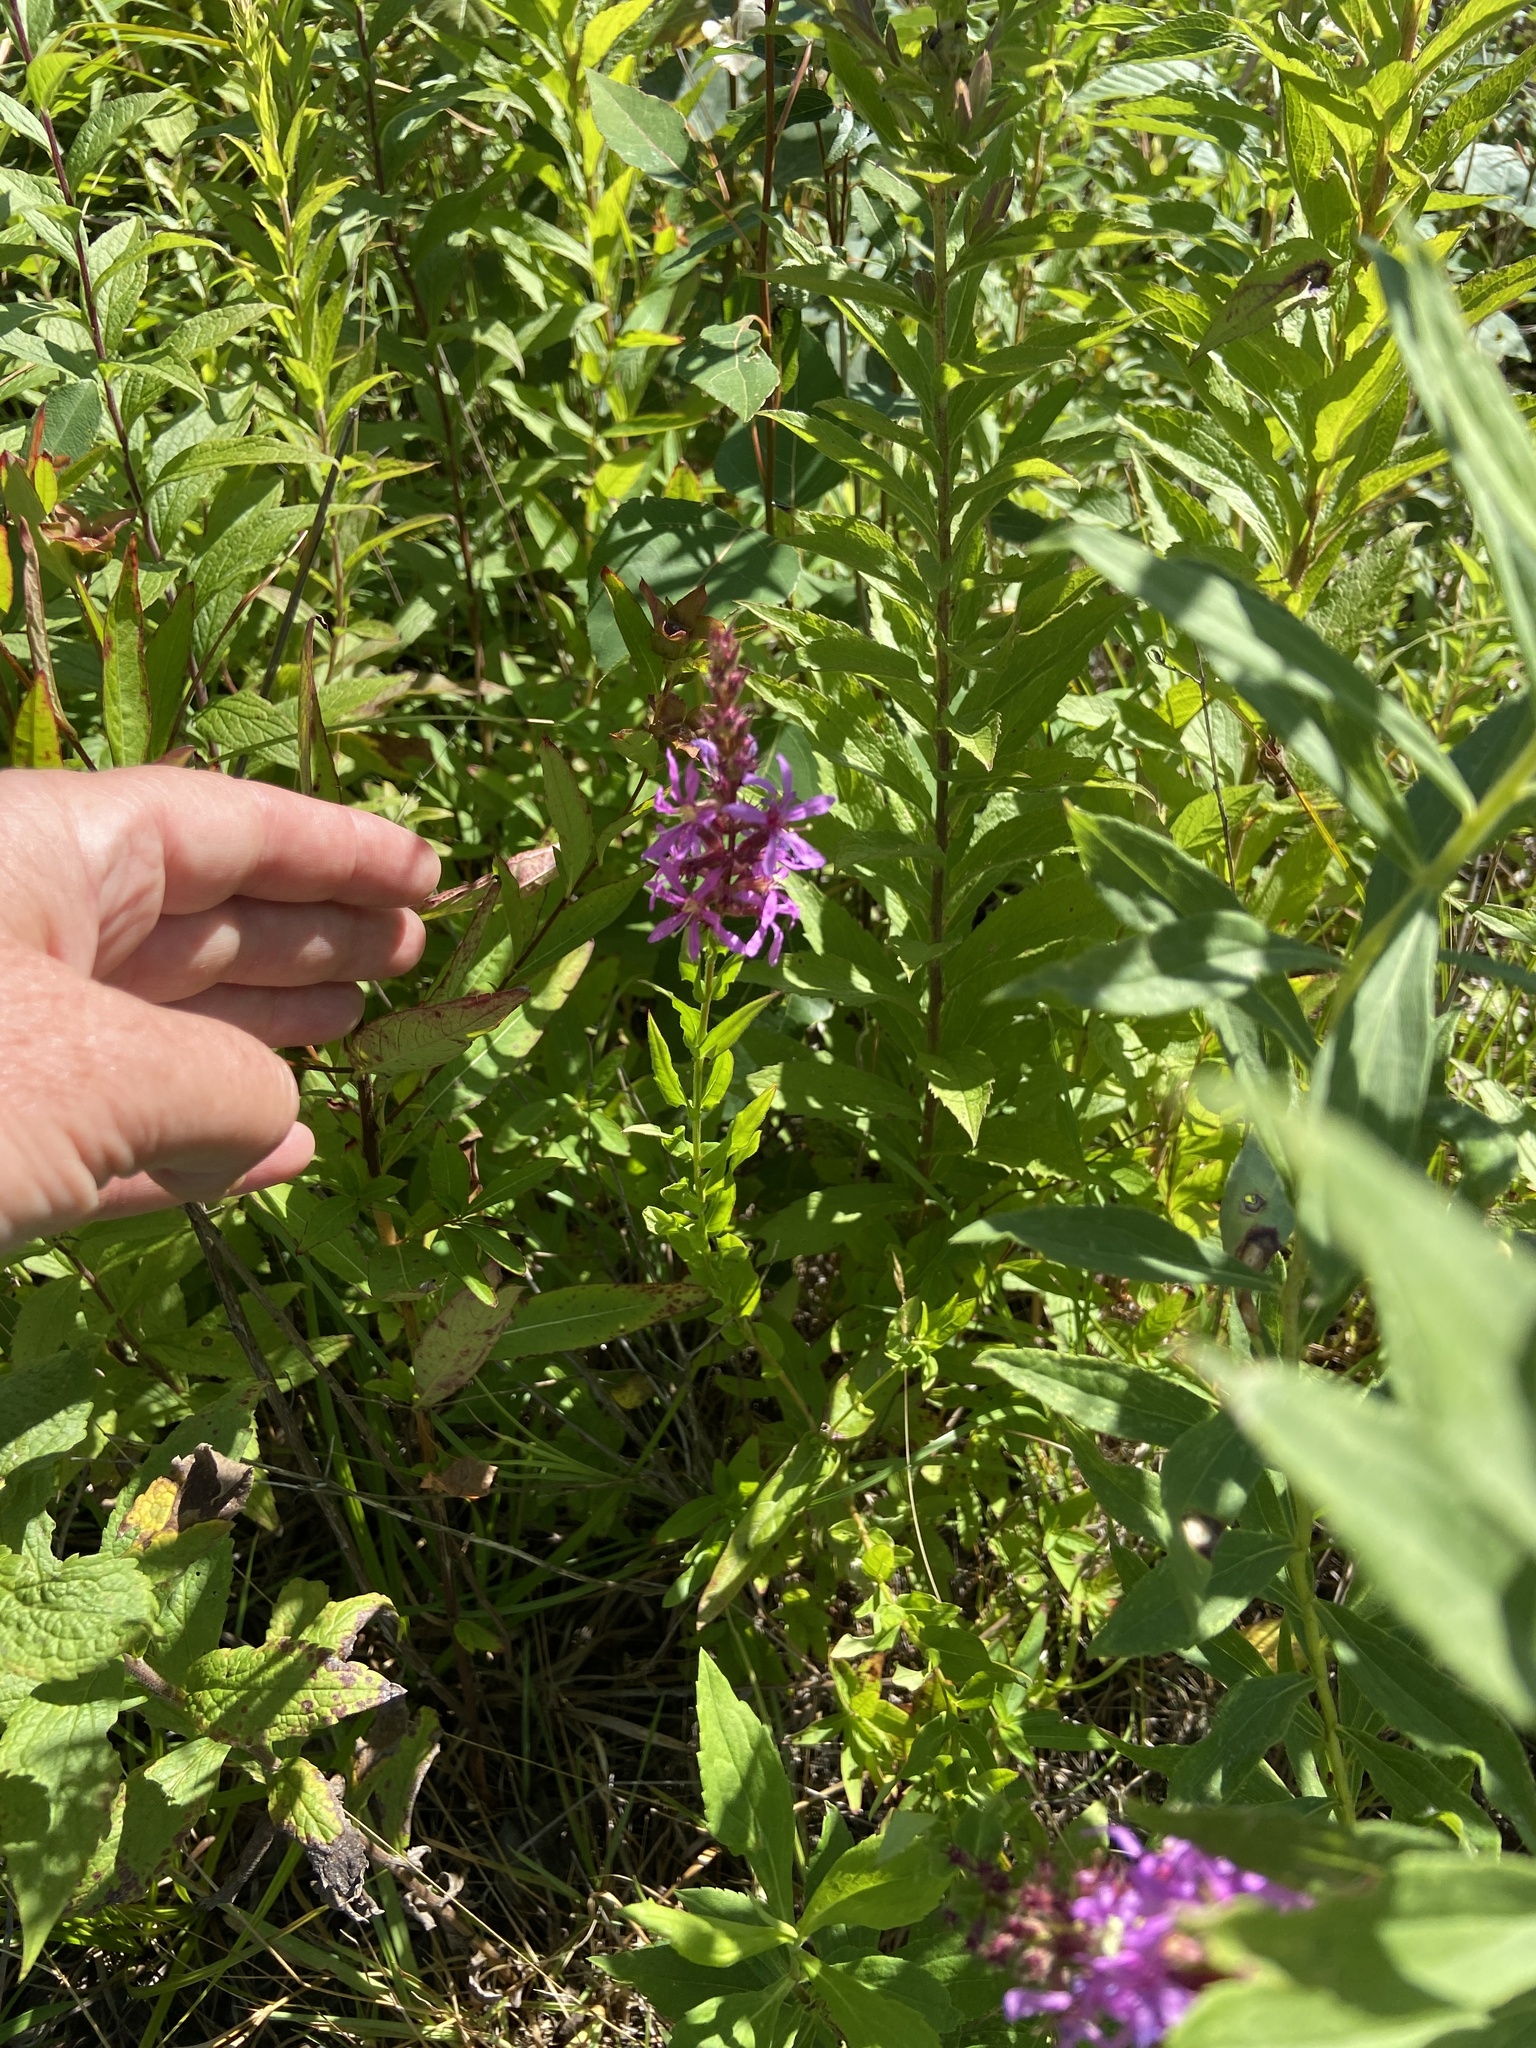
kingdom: Plantae
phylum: Tracheophyta
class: Magnoliopsida
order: Myrtales
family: Lythraceae
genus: Lythrum
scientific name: Lythrum salicaria
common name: Purple loosestrife
